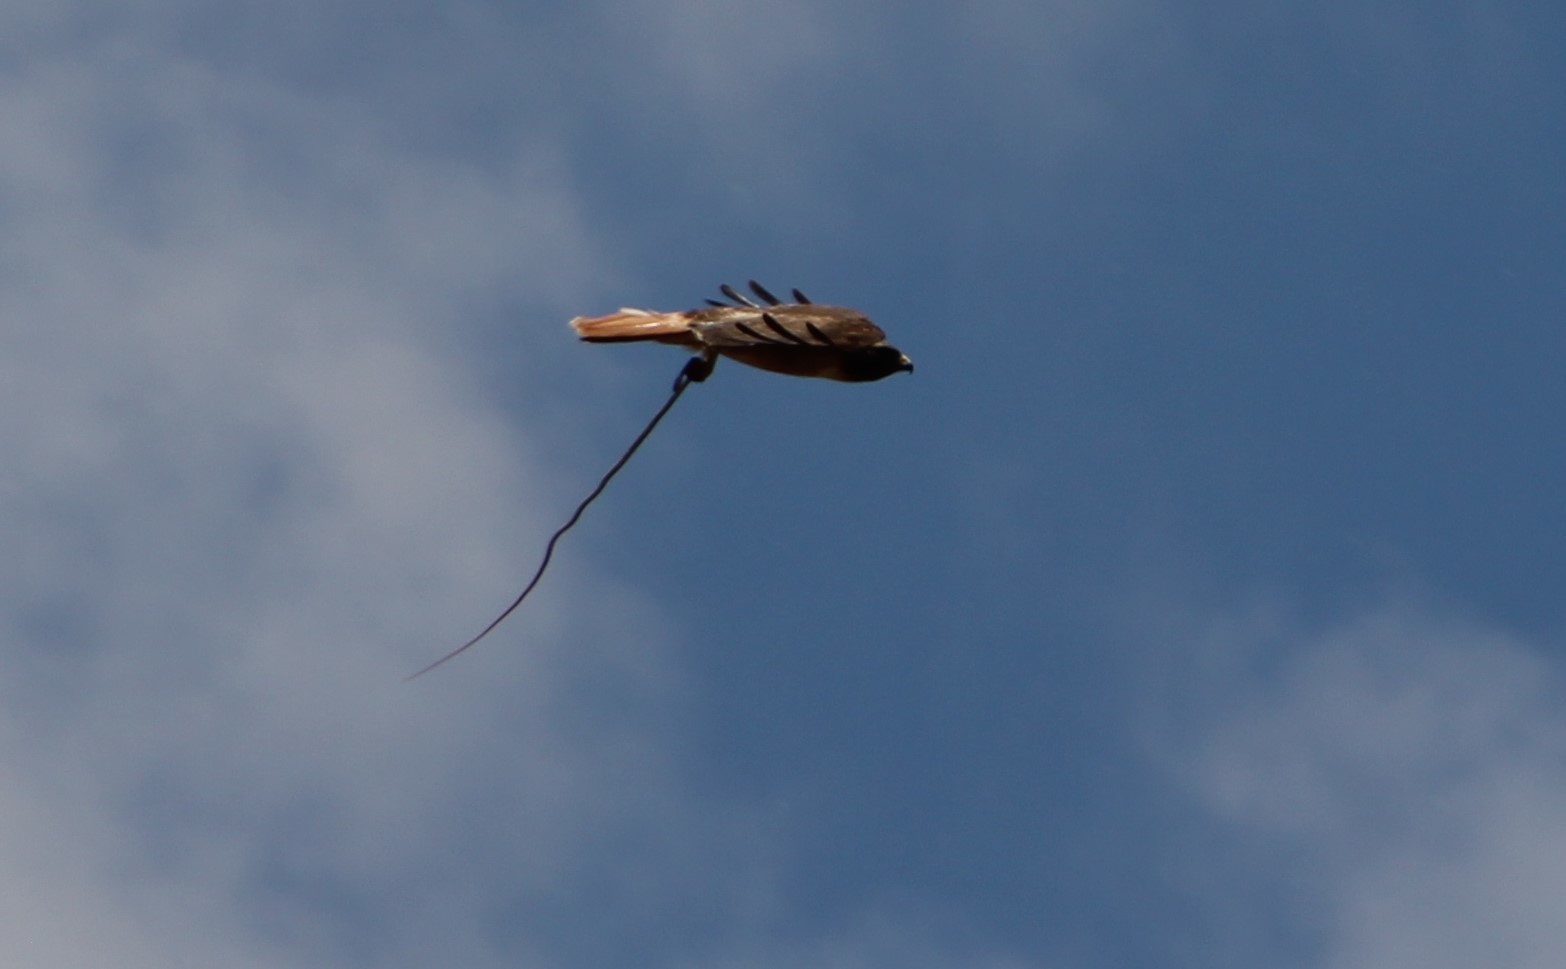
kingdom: Animalia
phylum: Chordata
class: Aves
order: Accipitriformes
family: Accipitridae
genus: Buteo
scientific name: Buteo jamaicensis
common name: Red-tailed hawk
